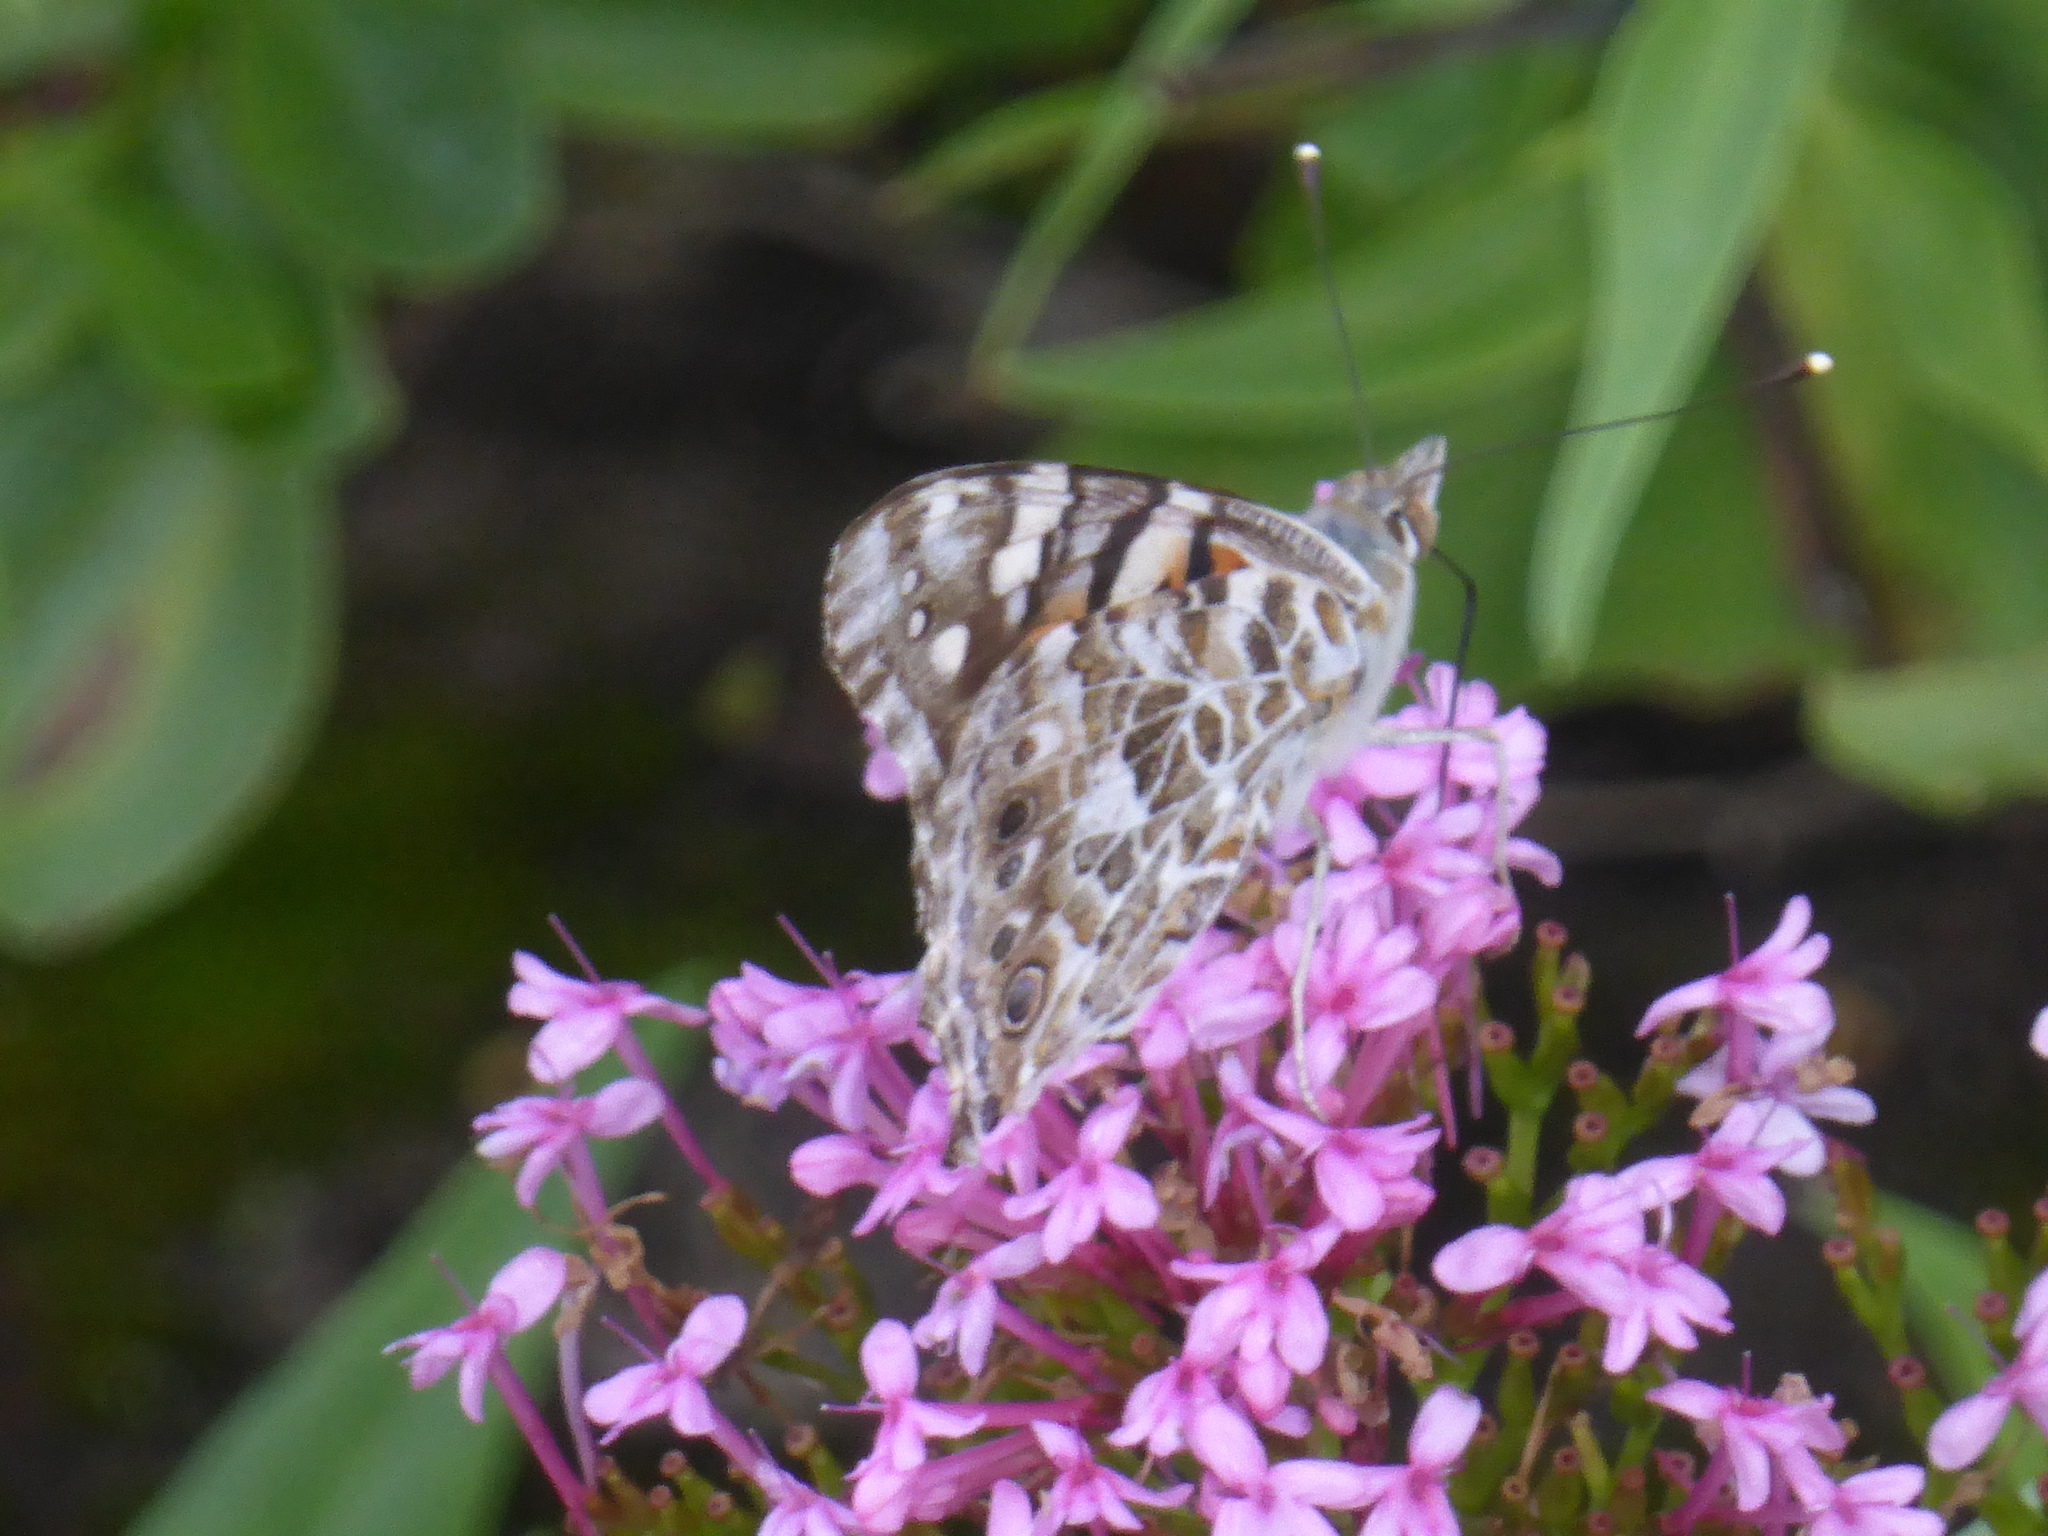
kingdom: Animalia
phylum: Arthropoda
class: Insecta
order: Lepidoptera
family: Nymphalidae
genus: Vanessa
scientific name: Vanessa cardui
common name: Painted lady
